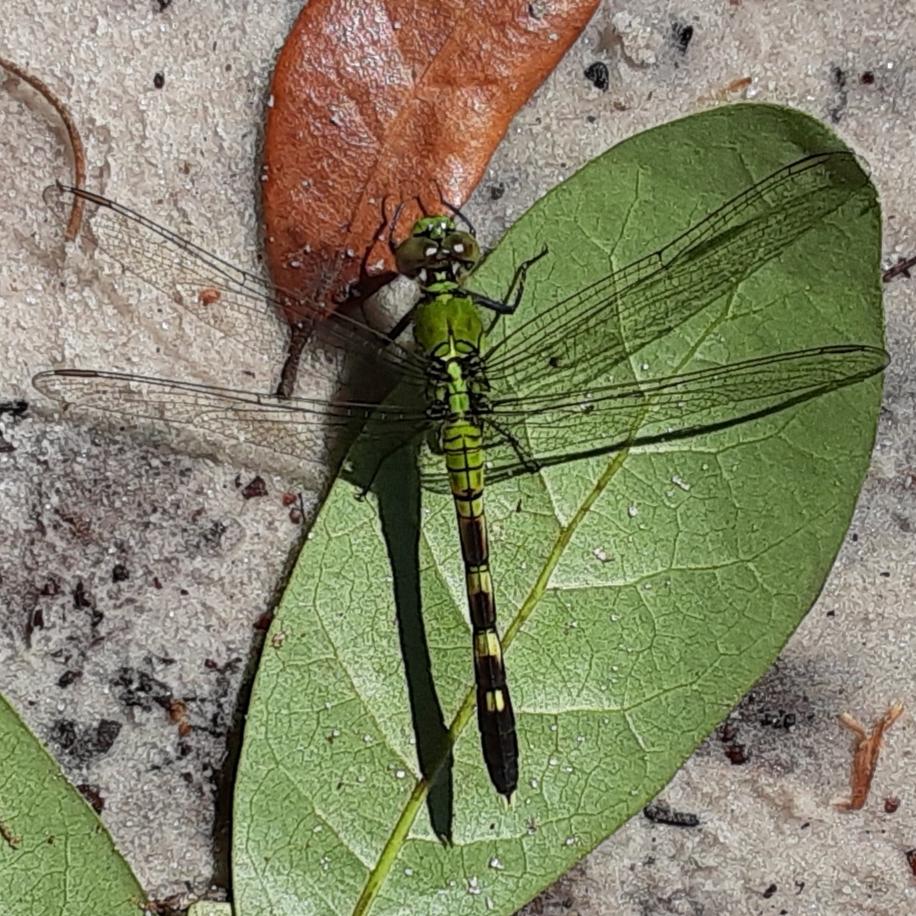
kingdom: Animalia
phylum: Arthropoda
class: Insecta
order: Odonata
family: Libellulidae
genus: Erythemis
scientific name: Erythemis simplicicollis
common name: Eastern pondhawk
